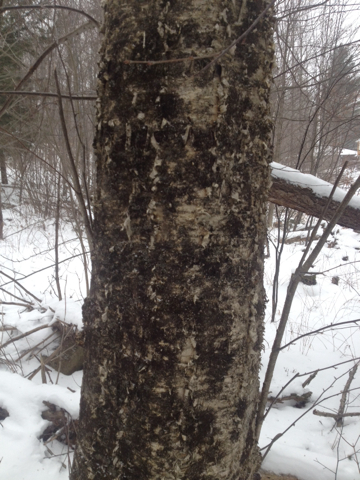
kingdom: Plantae
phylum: Tracheophyta
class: Magnoliopsida
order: Fagales
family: Betulaceae
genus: Betula
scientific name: Betula alleghaniensis
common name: Yellow birch
